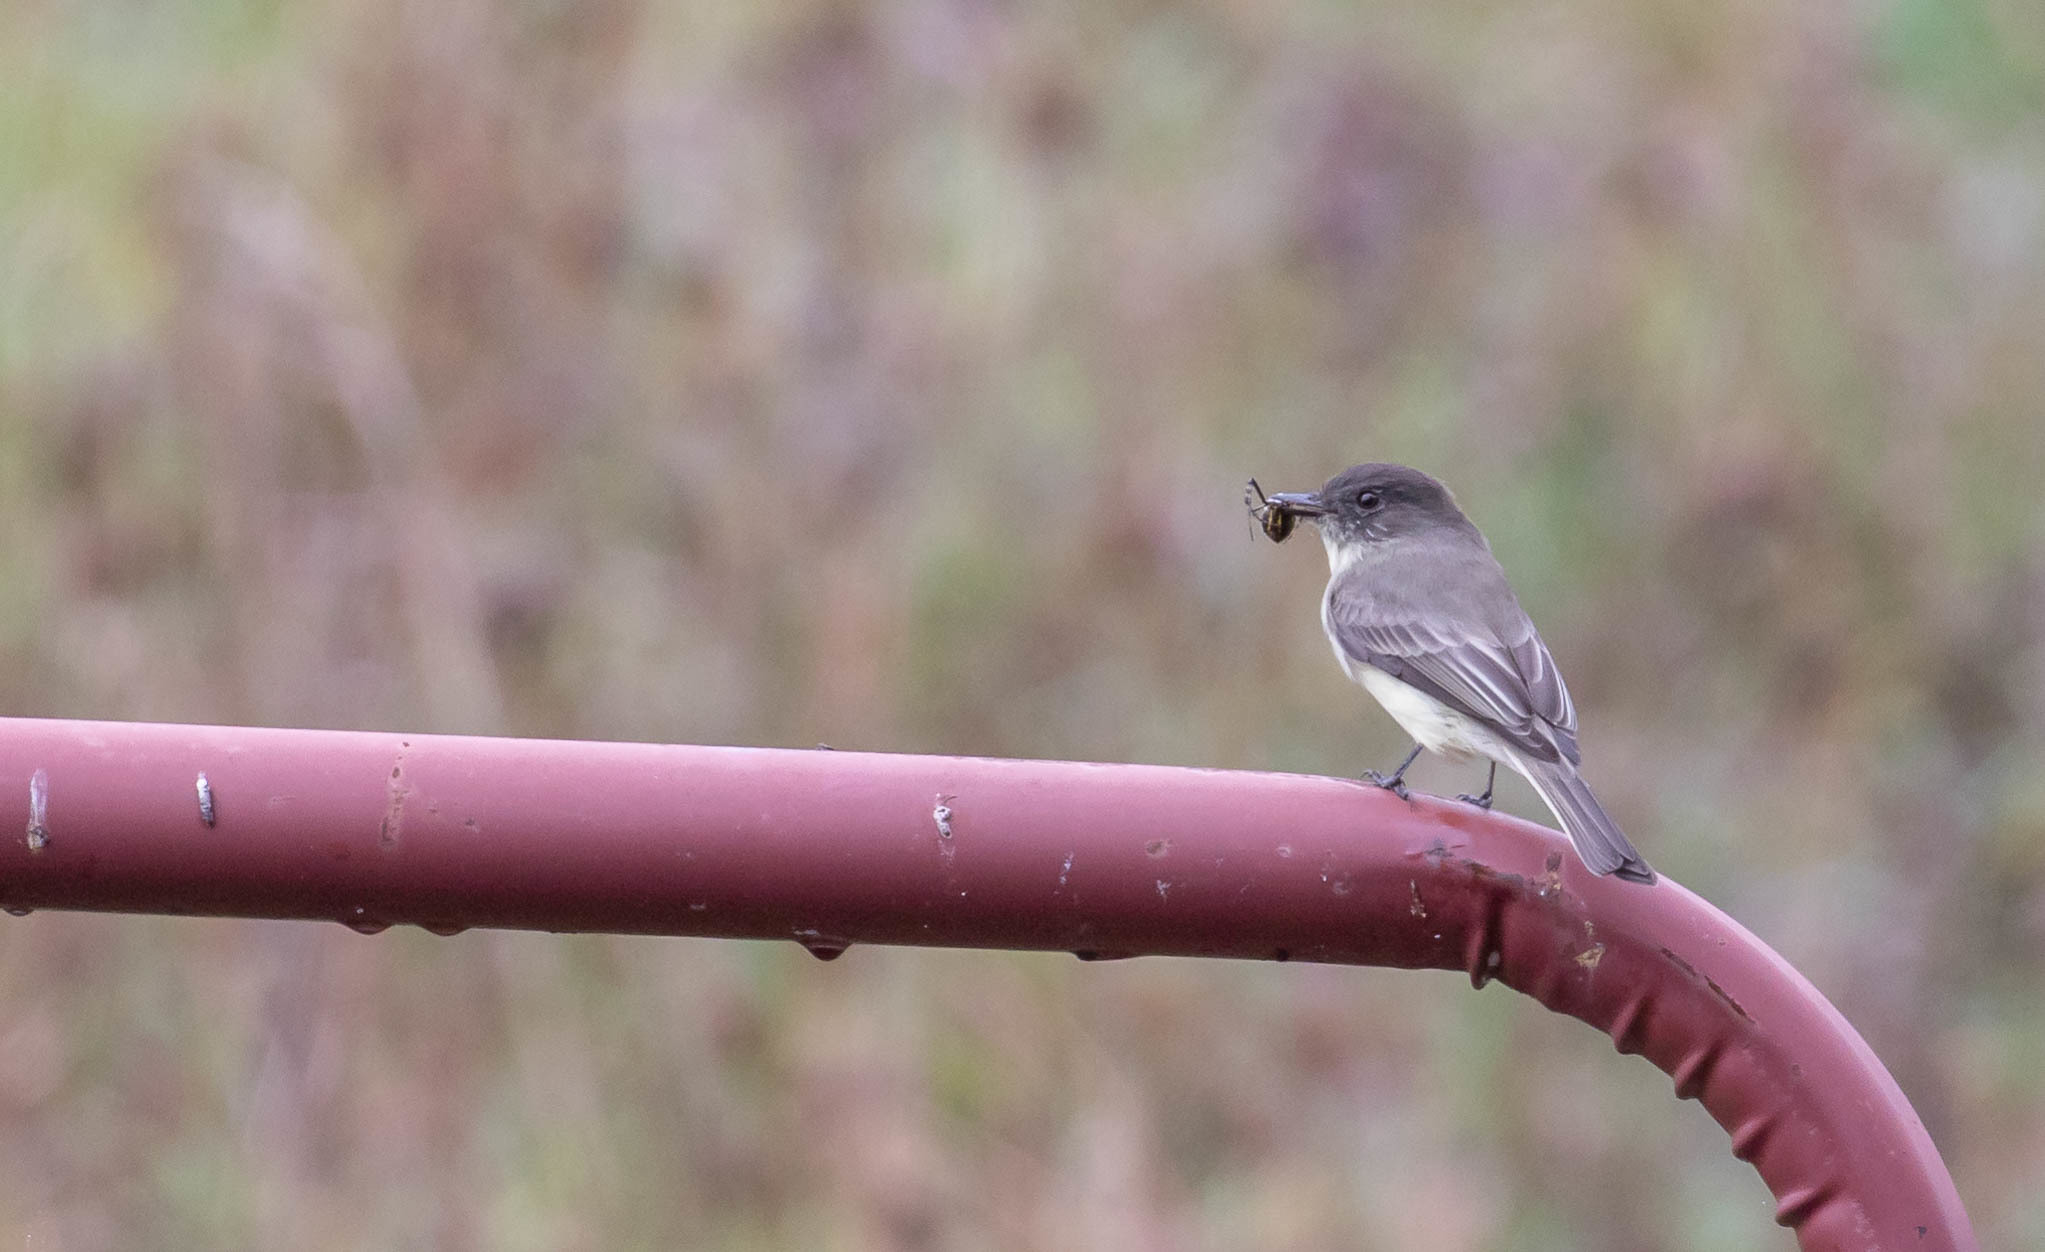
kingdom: Animalia
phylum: Chordata
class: Aves
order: Passeriformes
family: Tyrannidae
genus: Sayornis
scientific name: Sayornis phoebe
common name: Eastern phoebe
